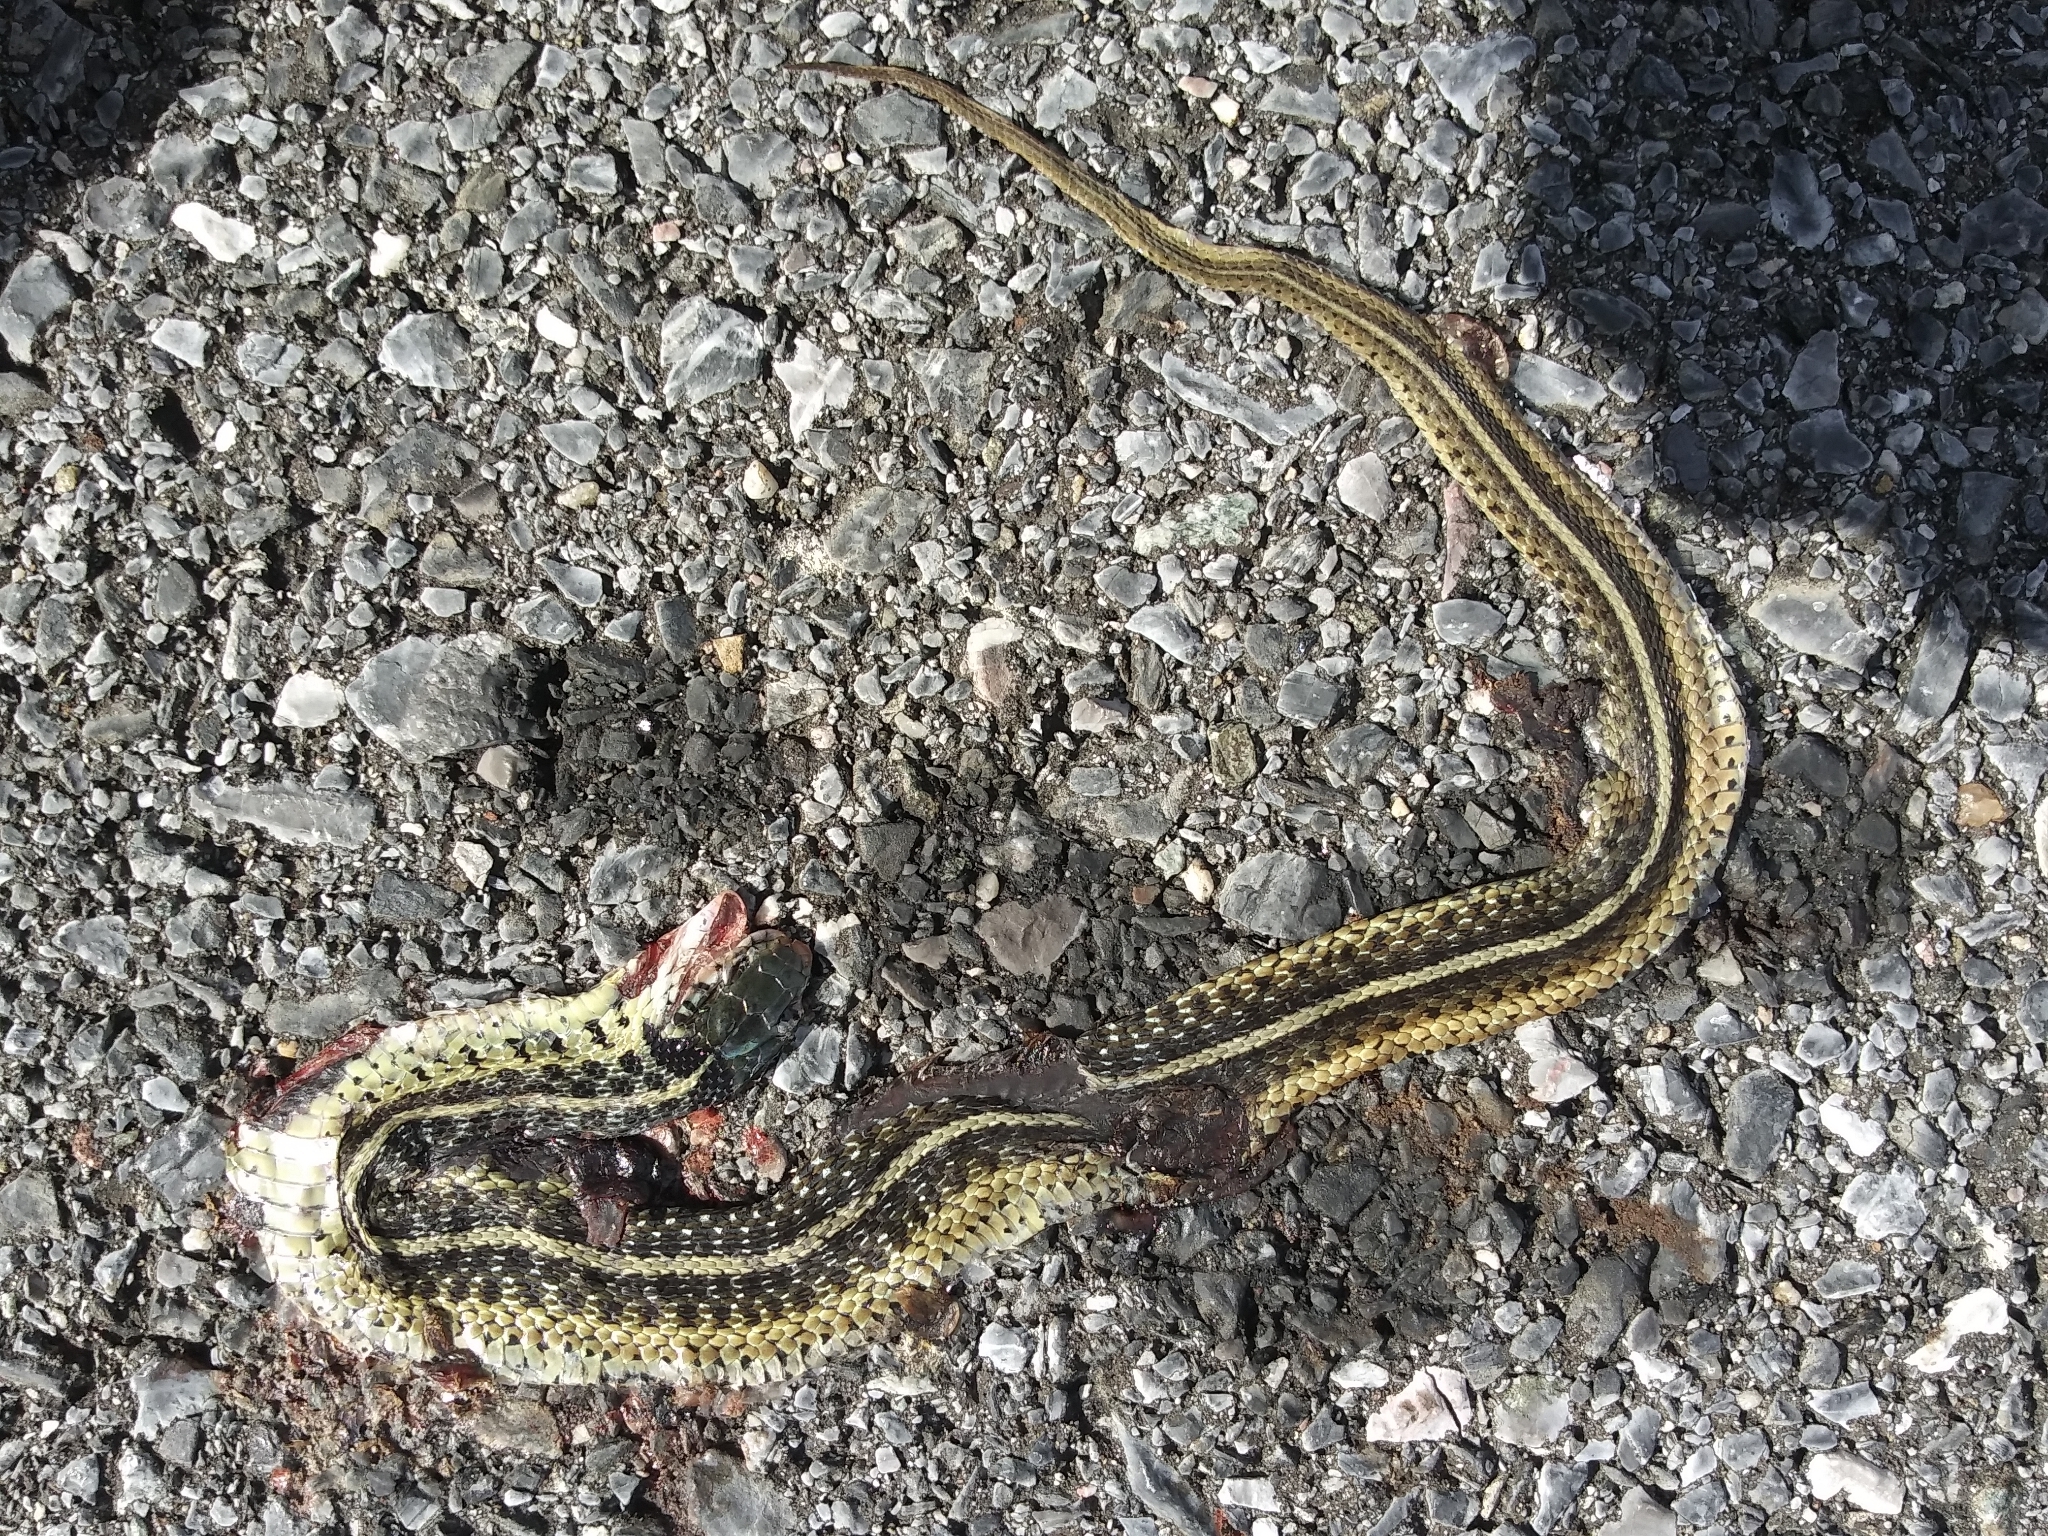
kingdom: Animalia
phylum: Chordata
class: Squamata
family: Colubridae
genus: Thamnophis
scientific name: Thamnophis sirtalis
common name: Common garter snake
